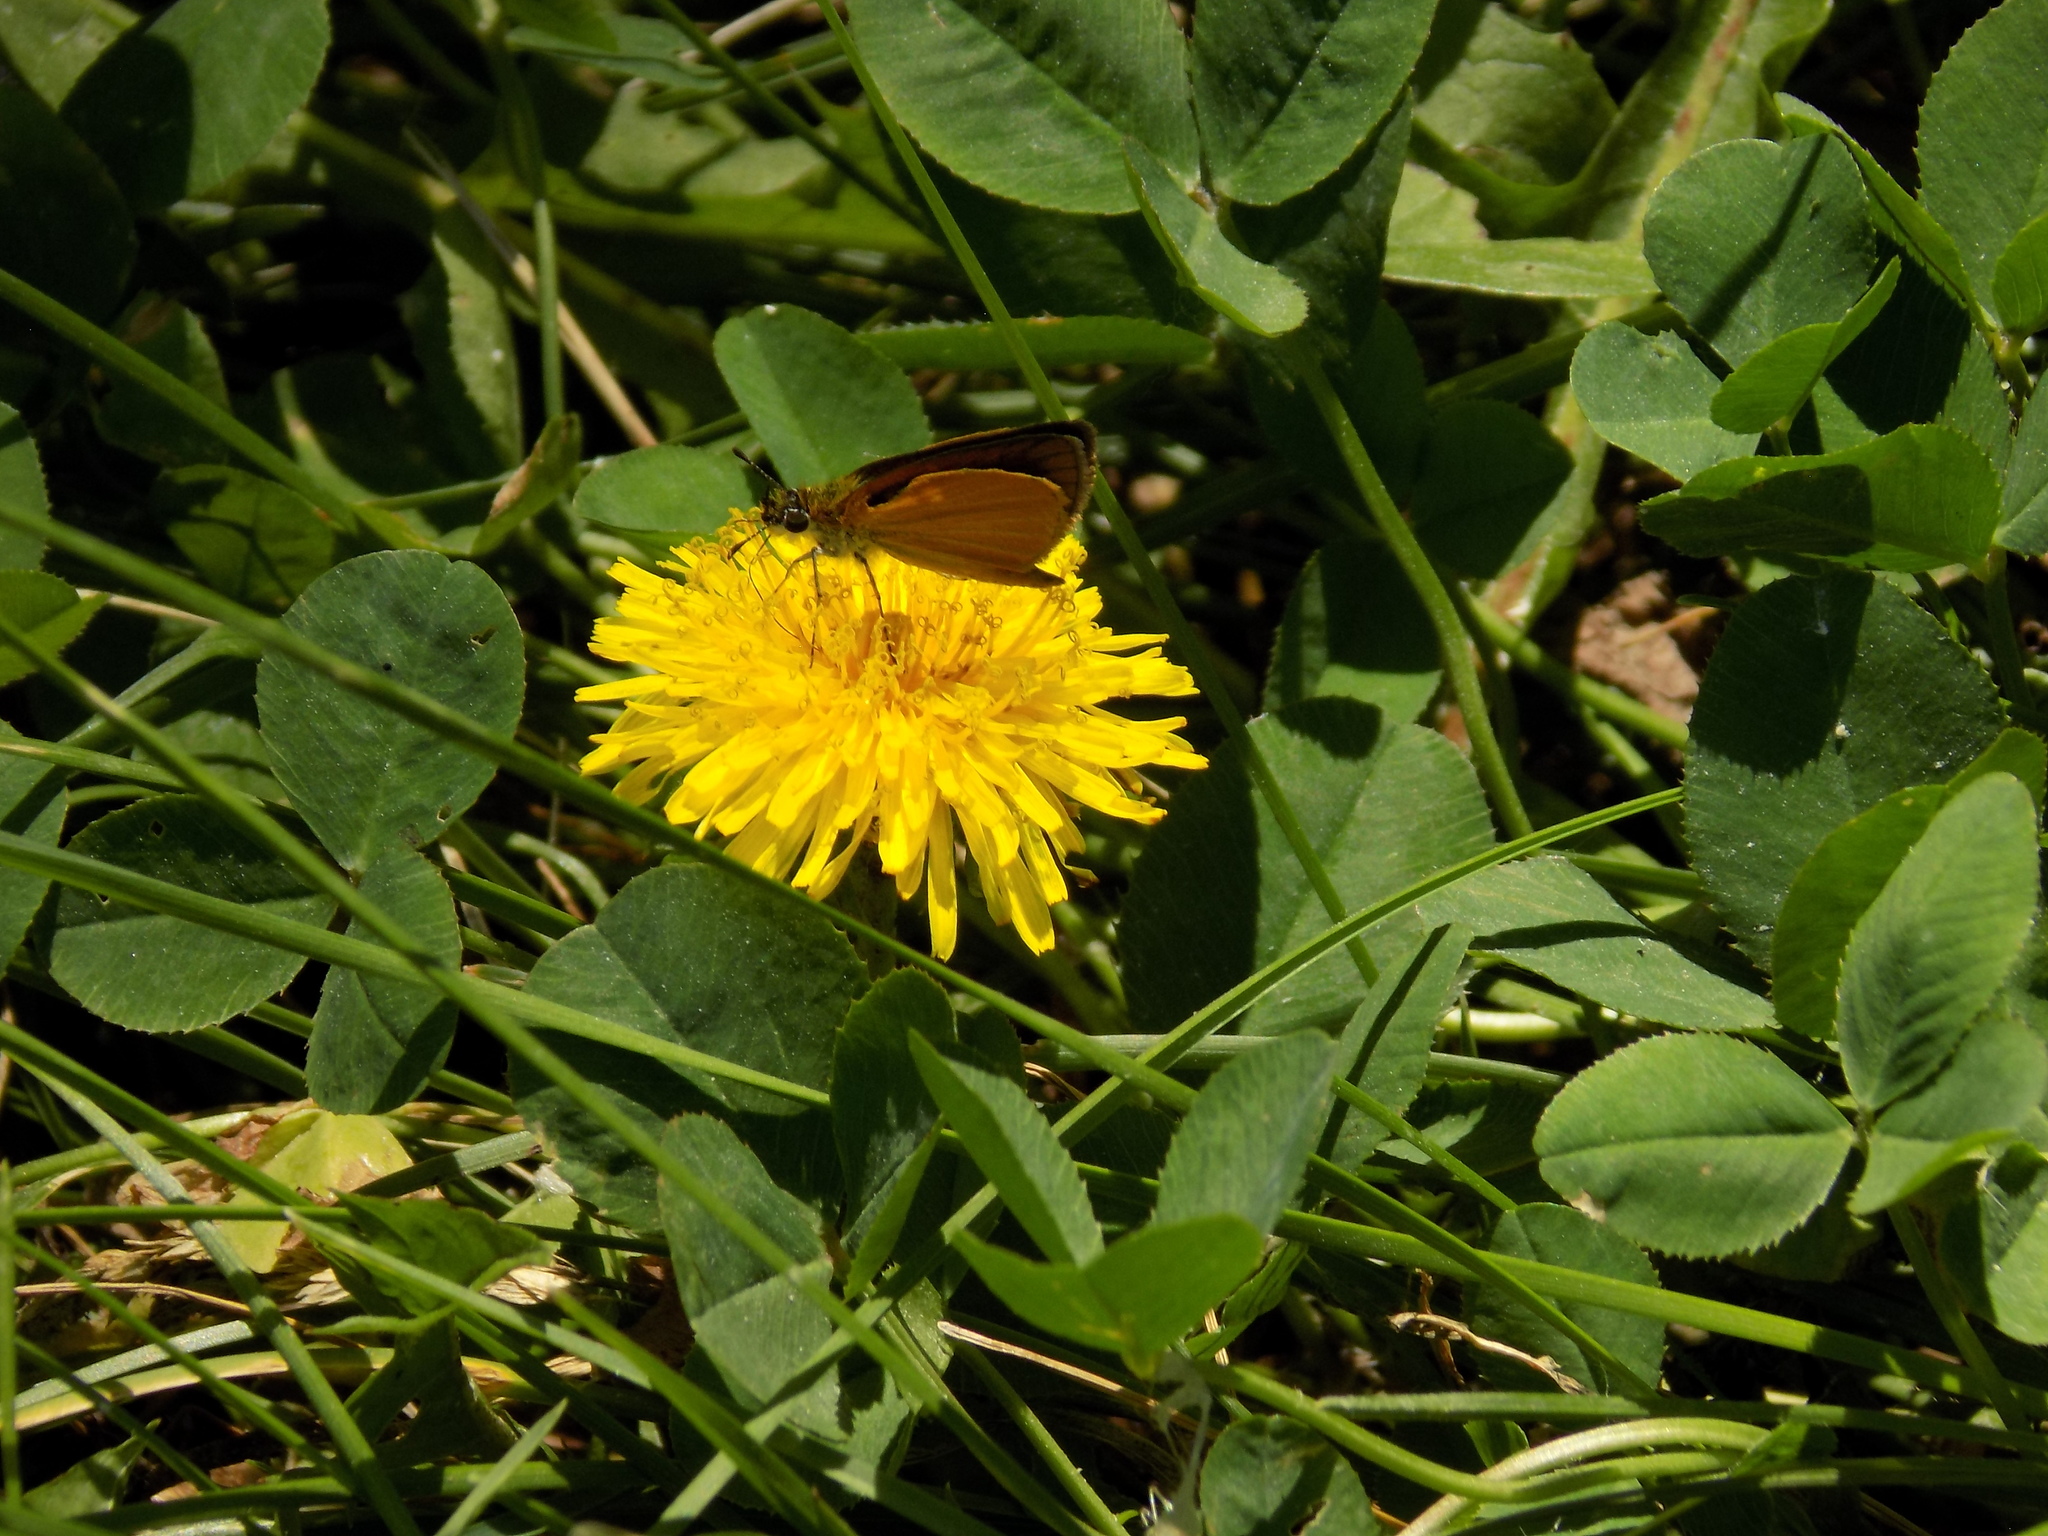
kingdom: Animalia
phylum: Arthropoda
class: Insecta
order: Lepidoptera
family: Hesperiidae
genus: Ancyloxypha
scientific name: Ancyloxypha numitor
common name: Least skipper
